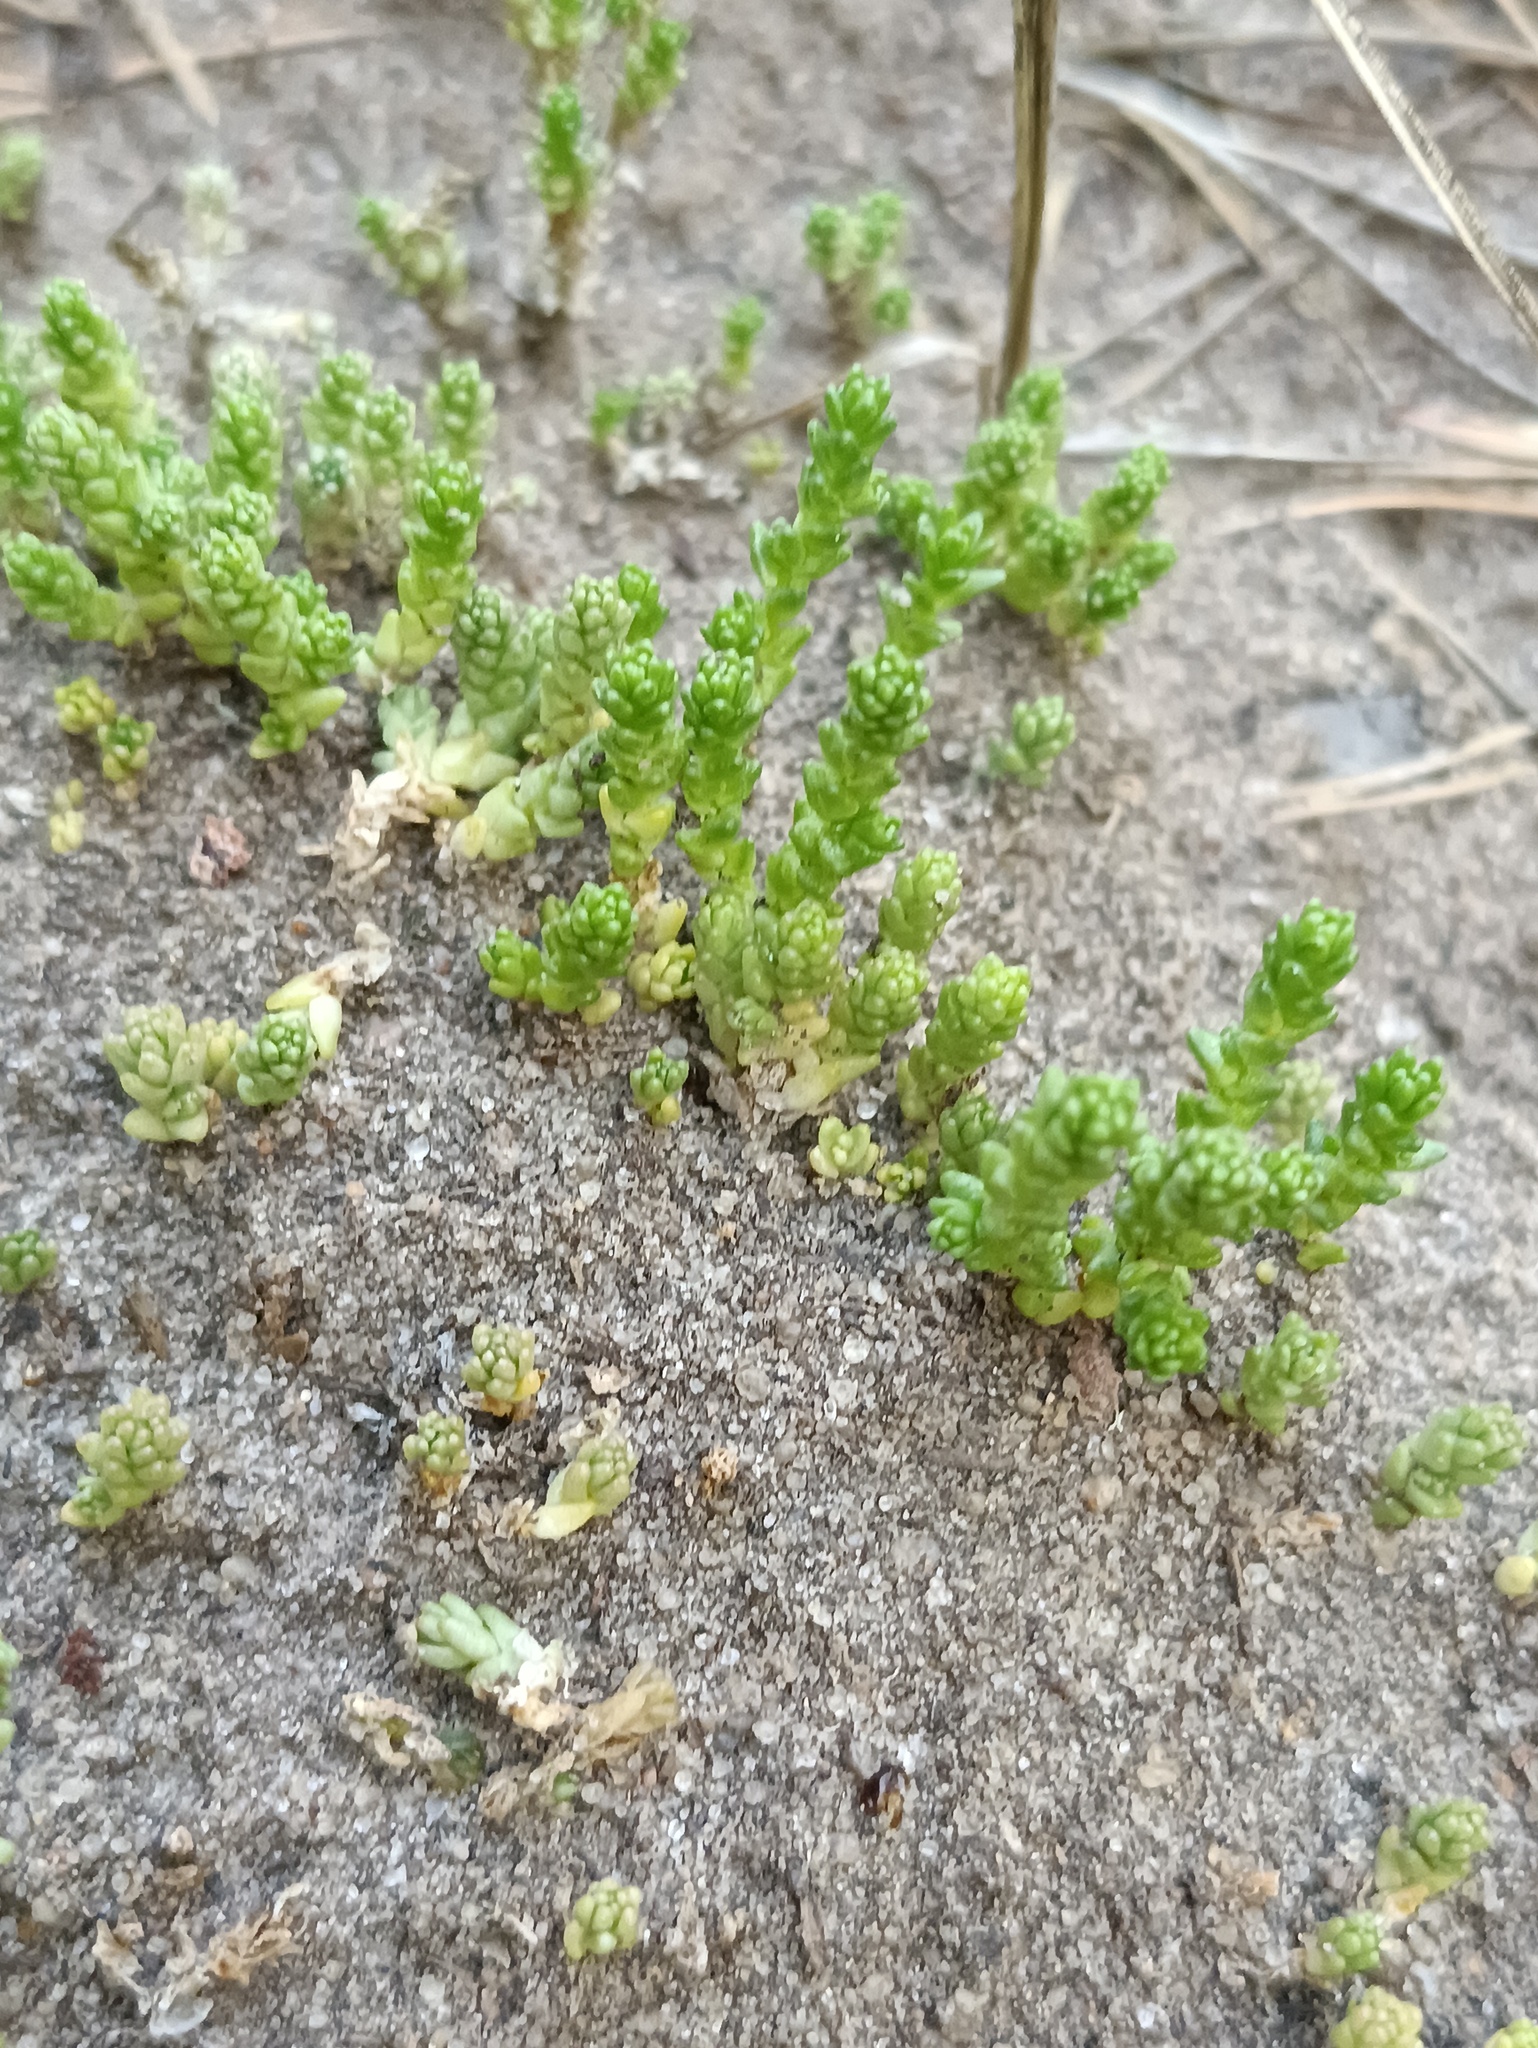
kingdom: Plantae
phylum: Tracheophyta
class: Magnoliopsida
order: Saxifragales
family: Crassulaceae
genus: Sedum
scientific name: Sedum acre
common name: Biting stonecrop
